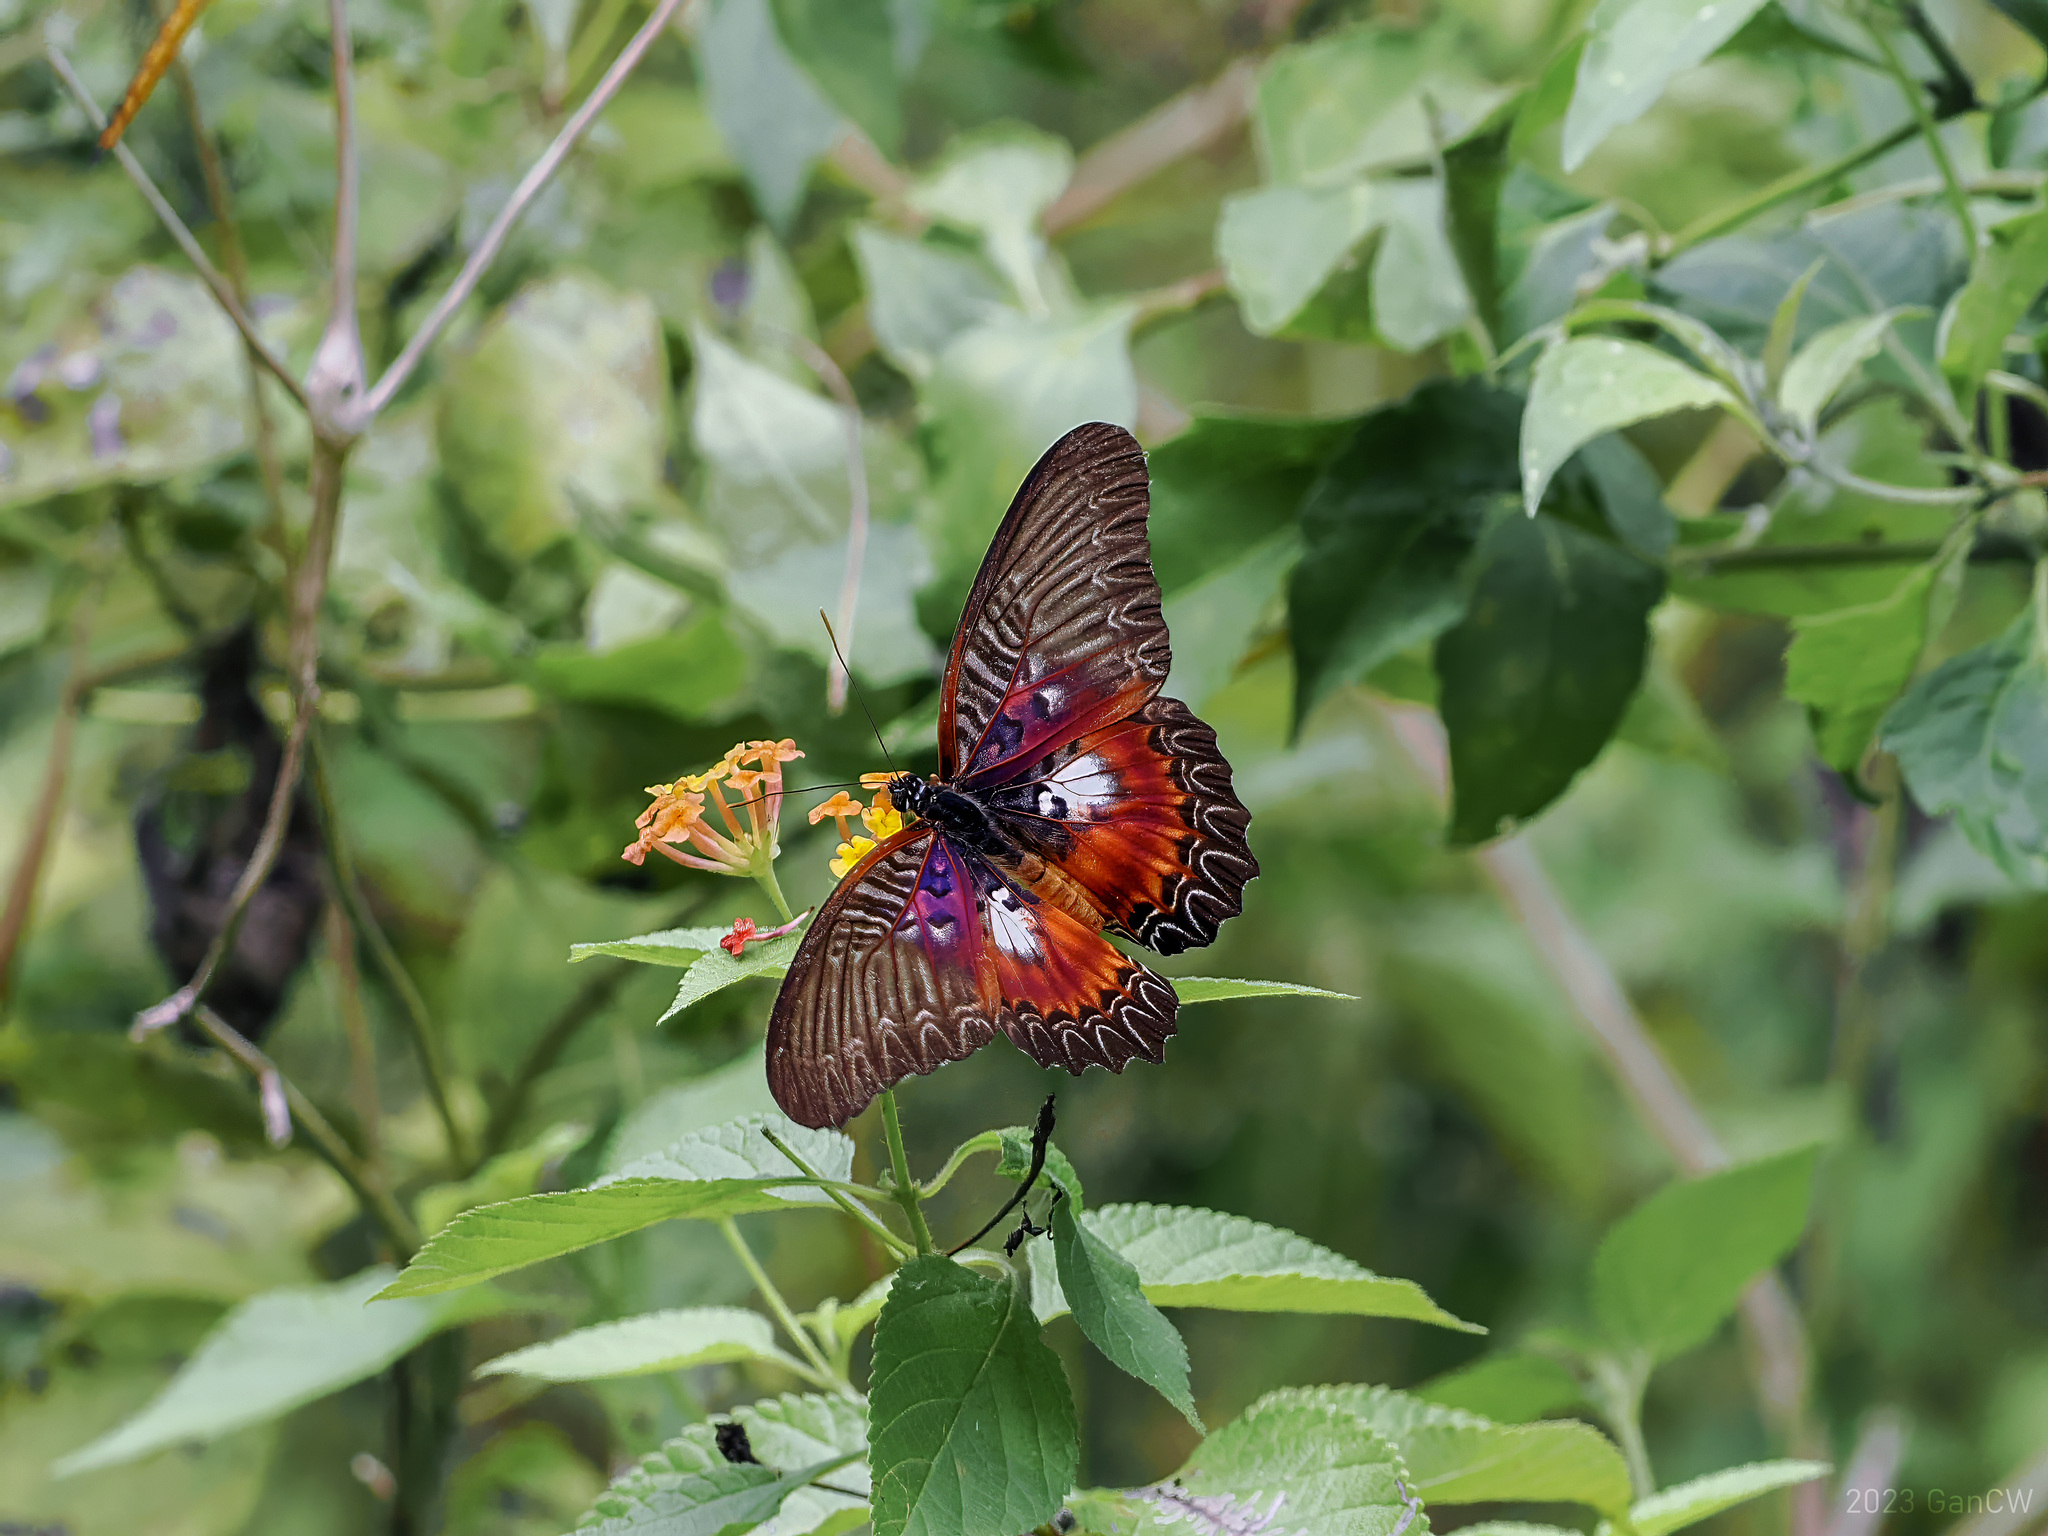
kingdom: Animalia
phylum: Arthropoda
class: Insecta
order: Lepidoptera
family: Nymphalidae
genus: Cethosia
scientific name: Cethosia myrina
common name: Violet lacewing
